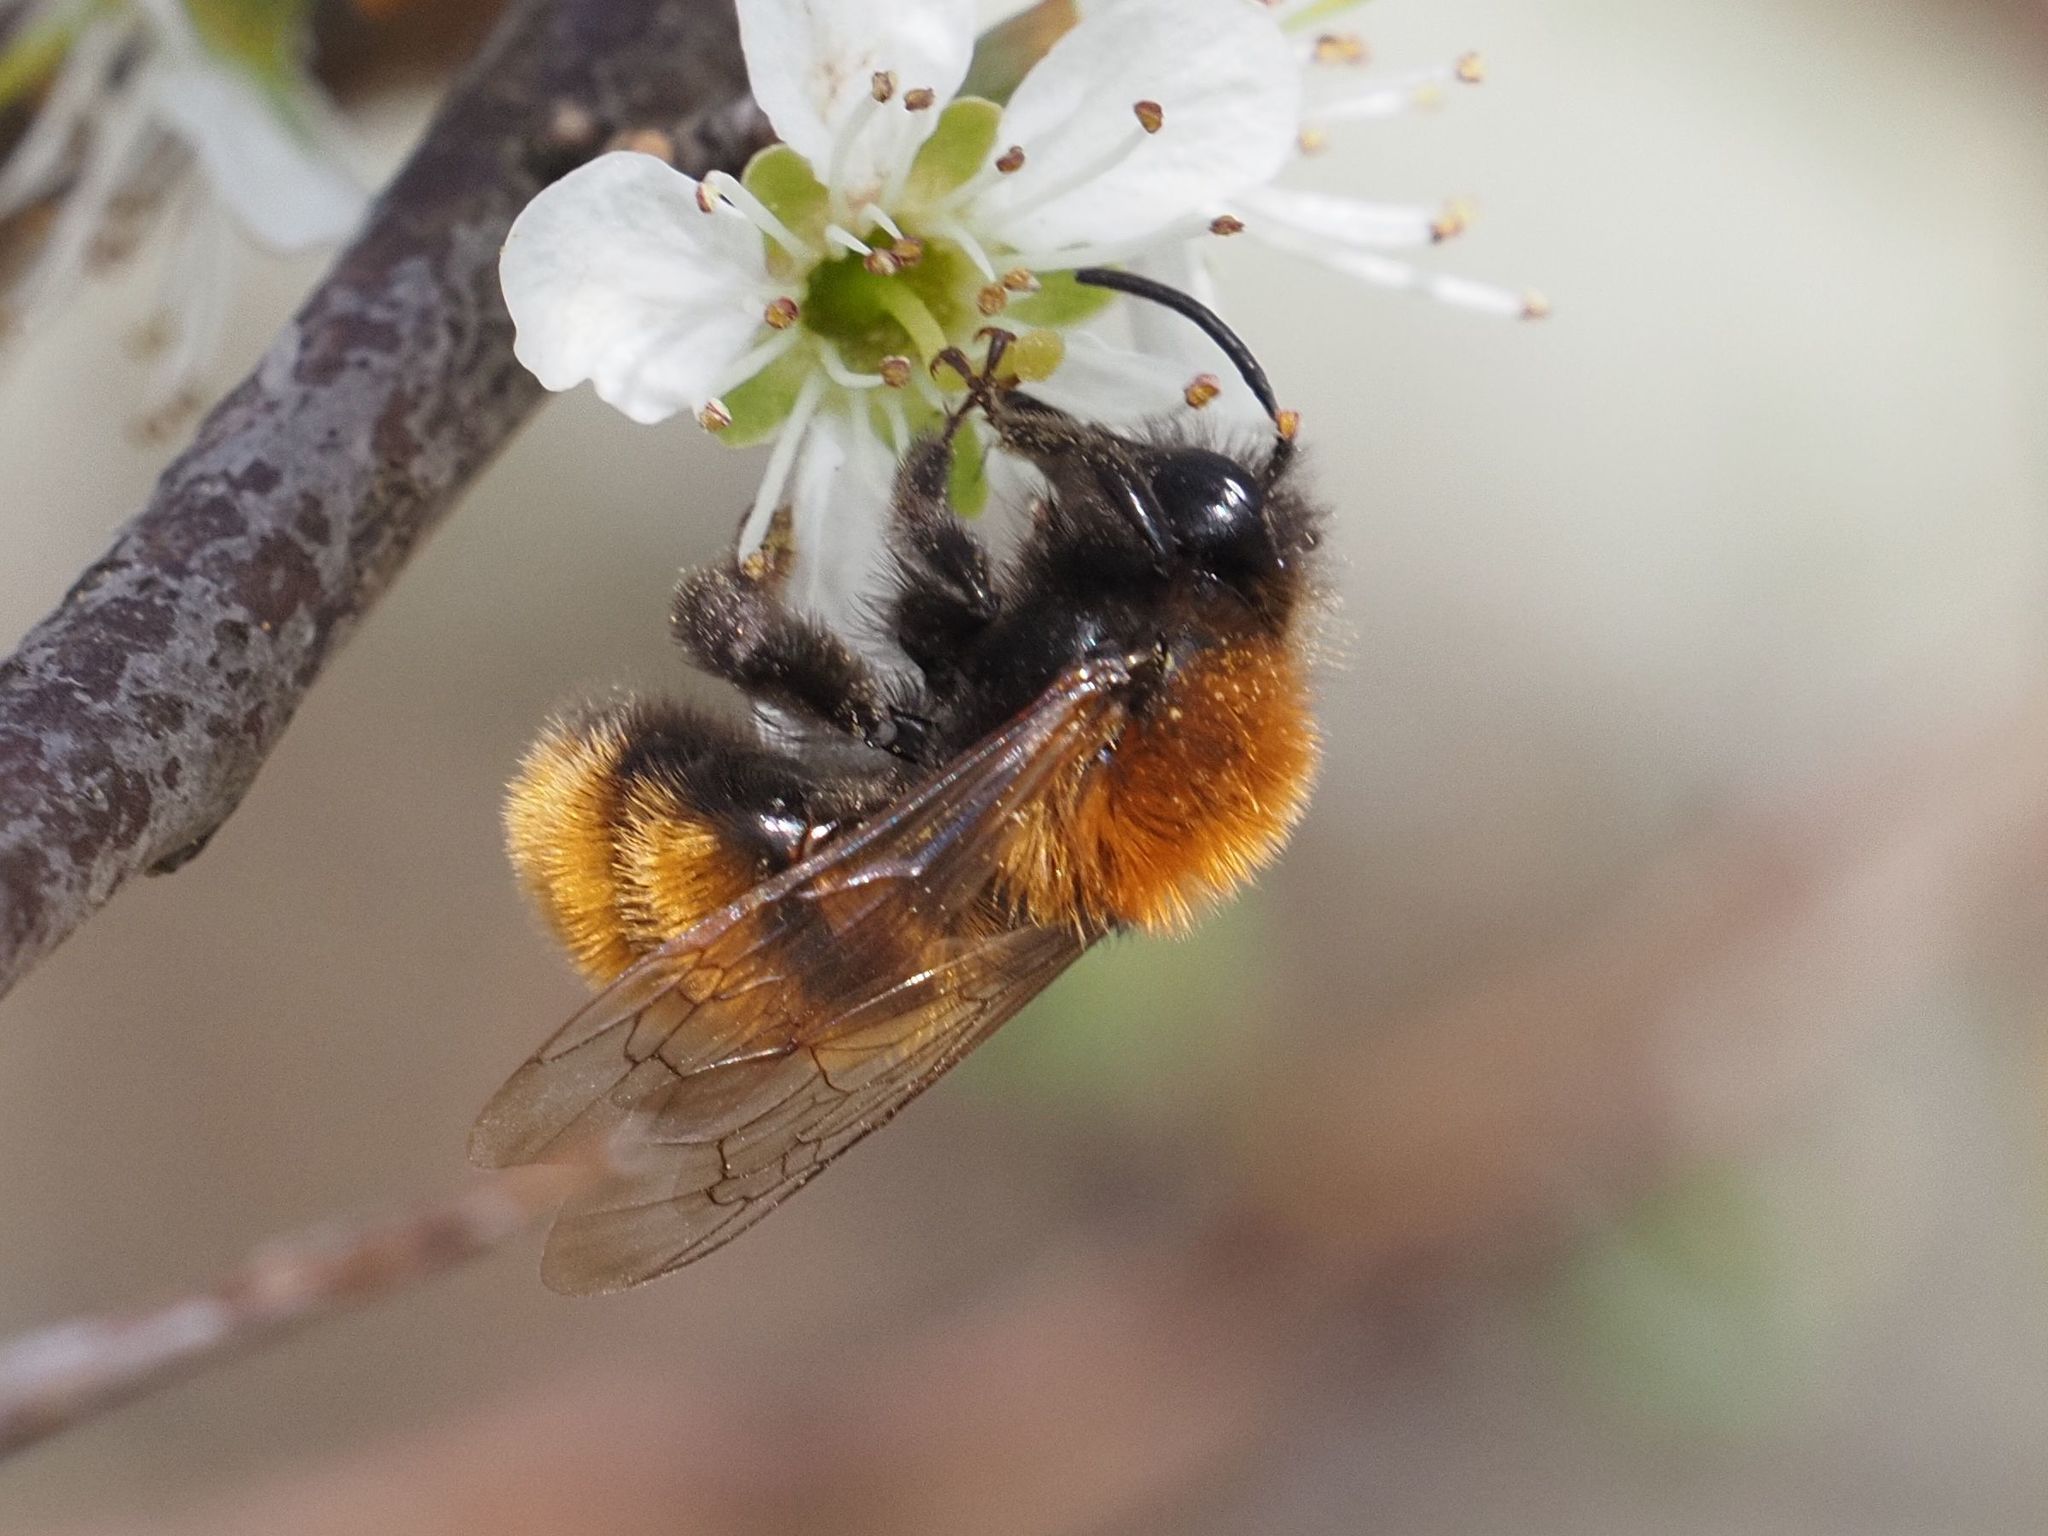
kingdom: Animalia
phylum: Arthropoda
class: Insecta
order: Hymenoptera
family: Andrenidae
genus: Andrena
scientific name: Andrena fulva
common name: Tawny mining bee
